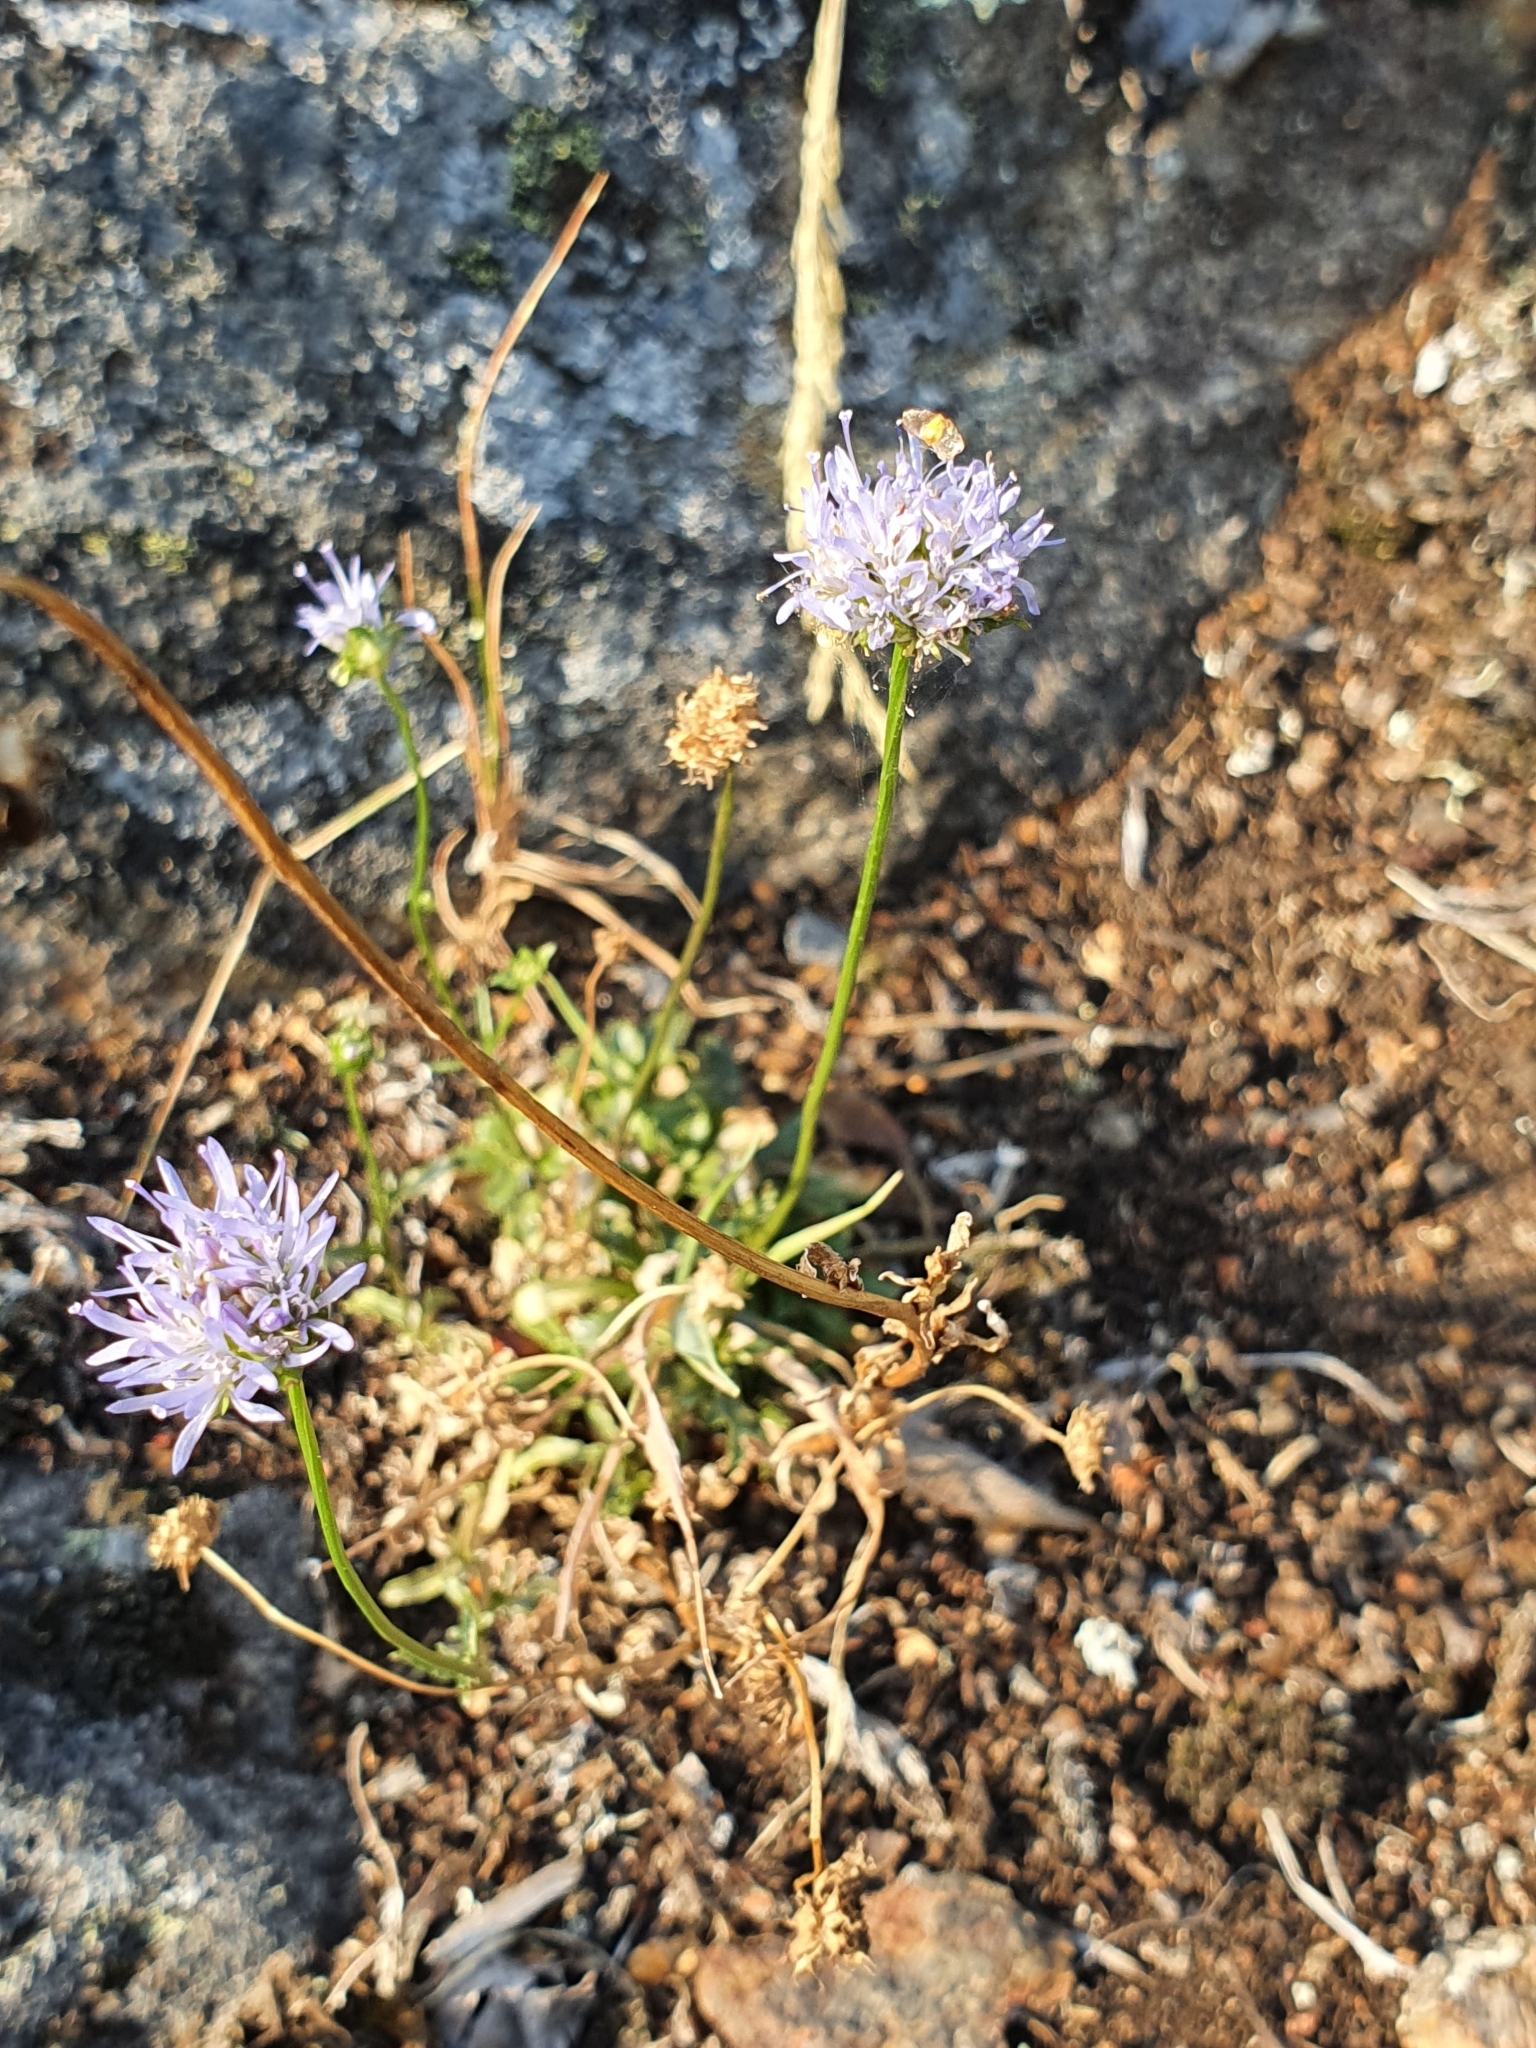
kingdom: Plantae
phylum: Tracheophyta
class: Magnoliopsida
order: Asterales
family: Campanulaceae
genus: Jasione
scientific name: Jasione montana
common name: Sheep's-bit
